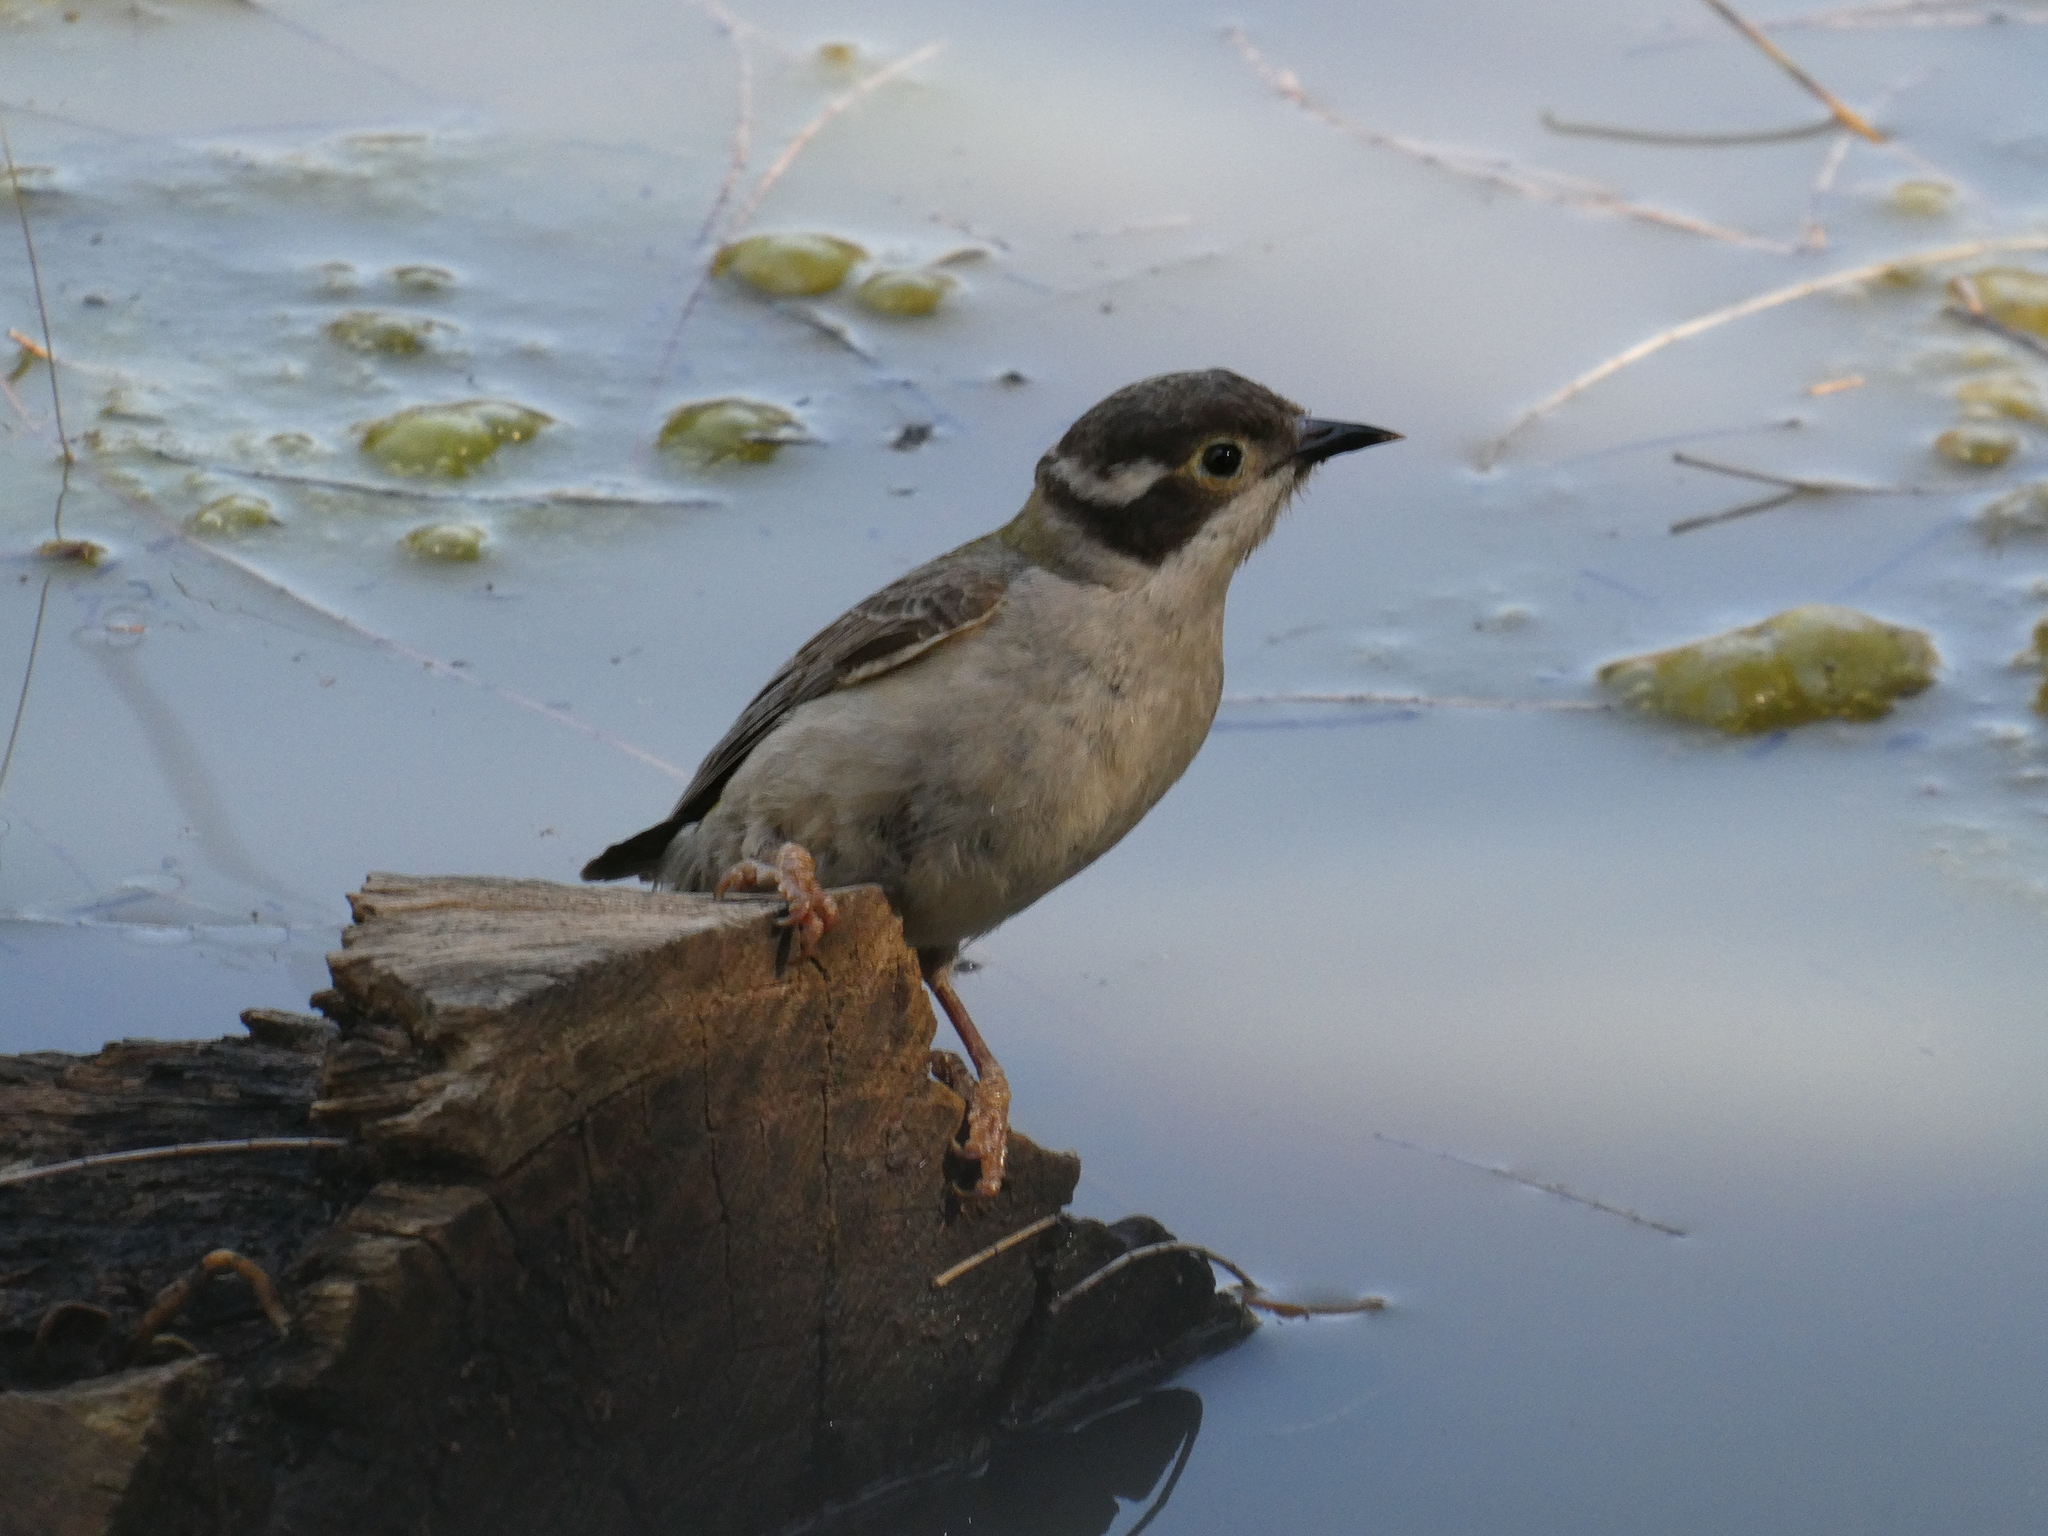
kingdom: Animalia
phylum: Chordata
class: Aves
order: Passeriformes
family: Meliphagidae
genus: Melithreptus
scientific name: Melithreptus brevirostris
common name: Brown-headed honeyeater
